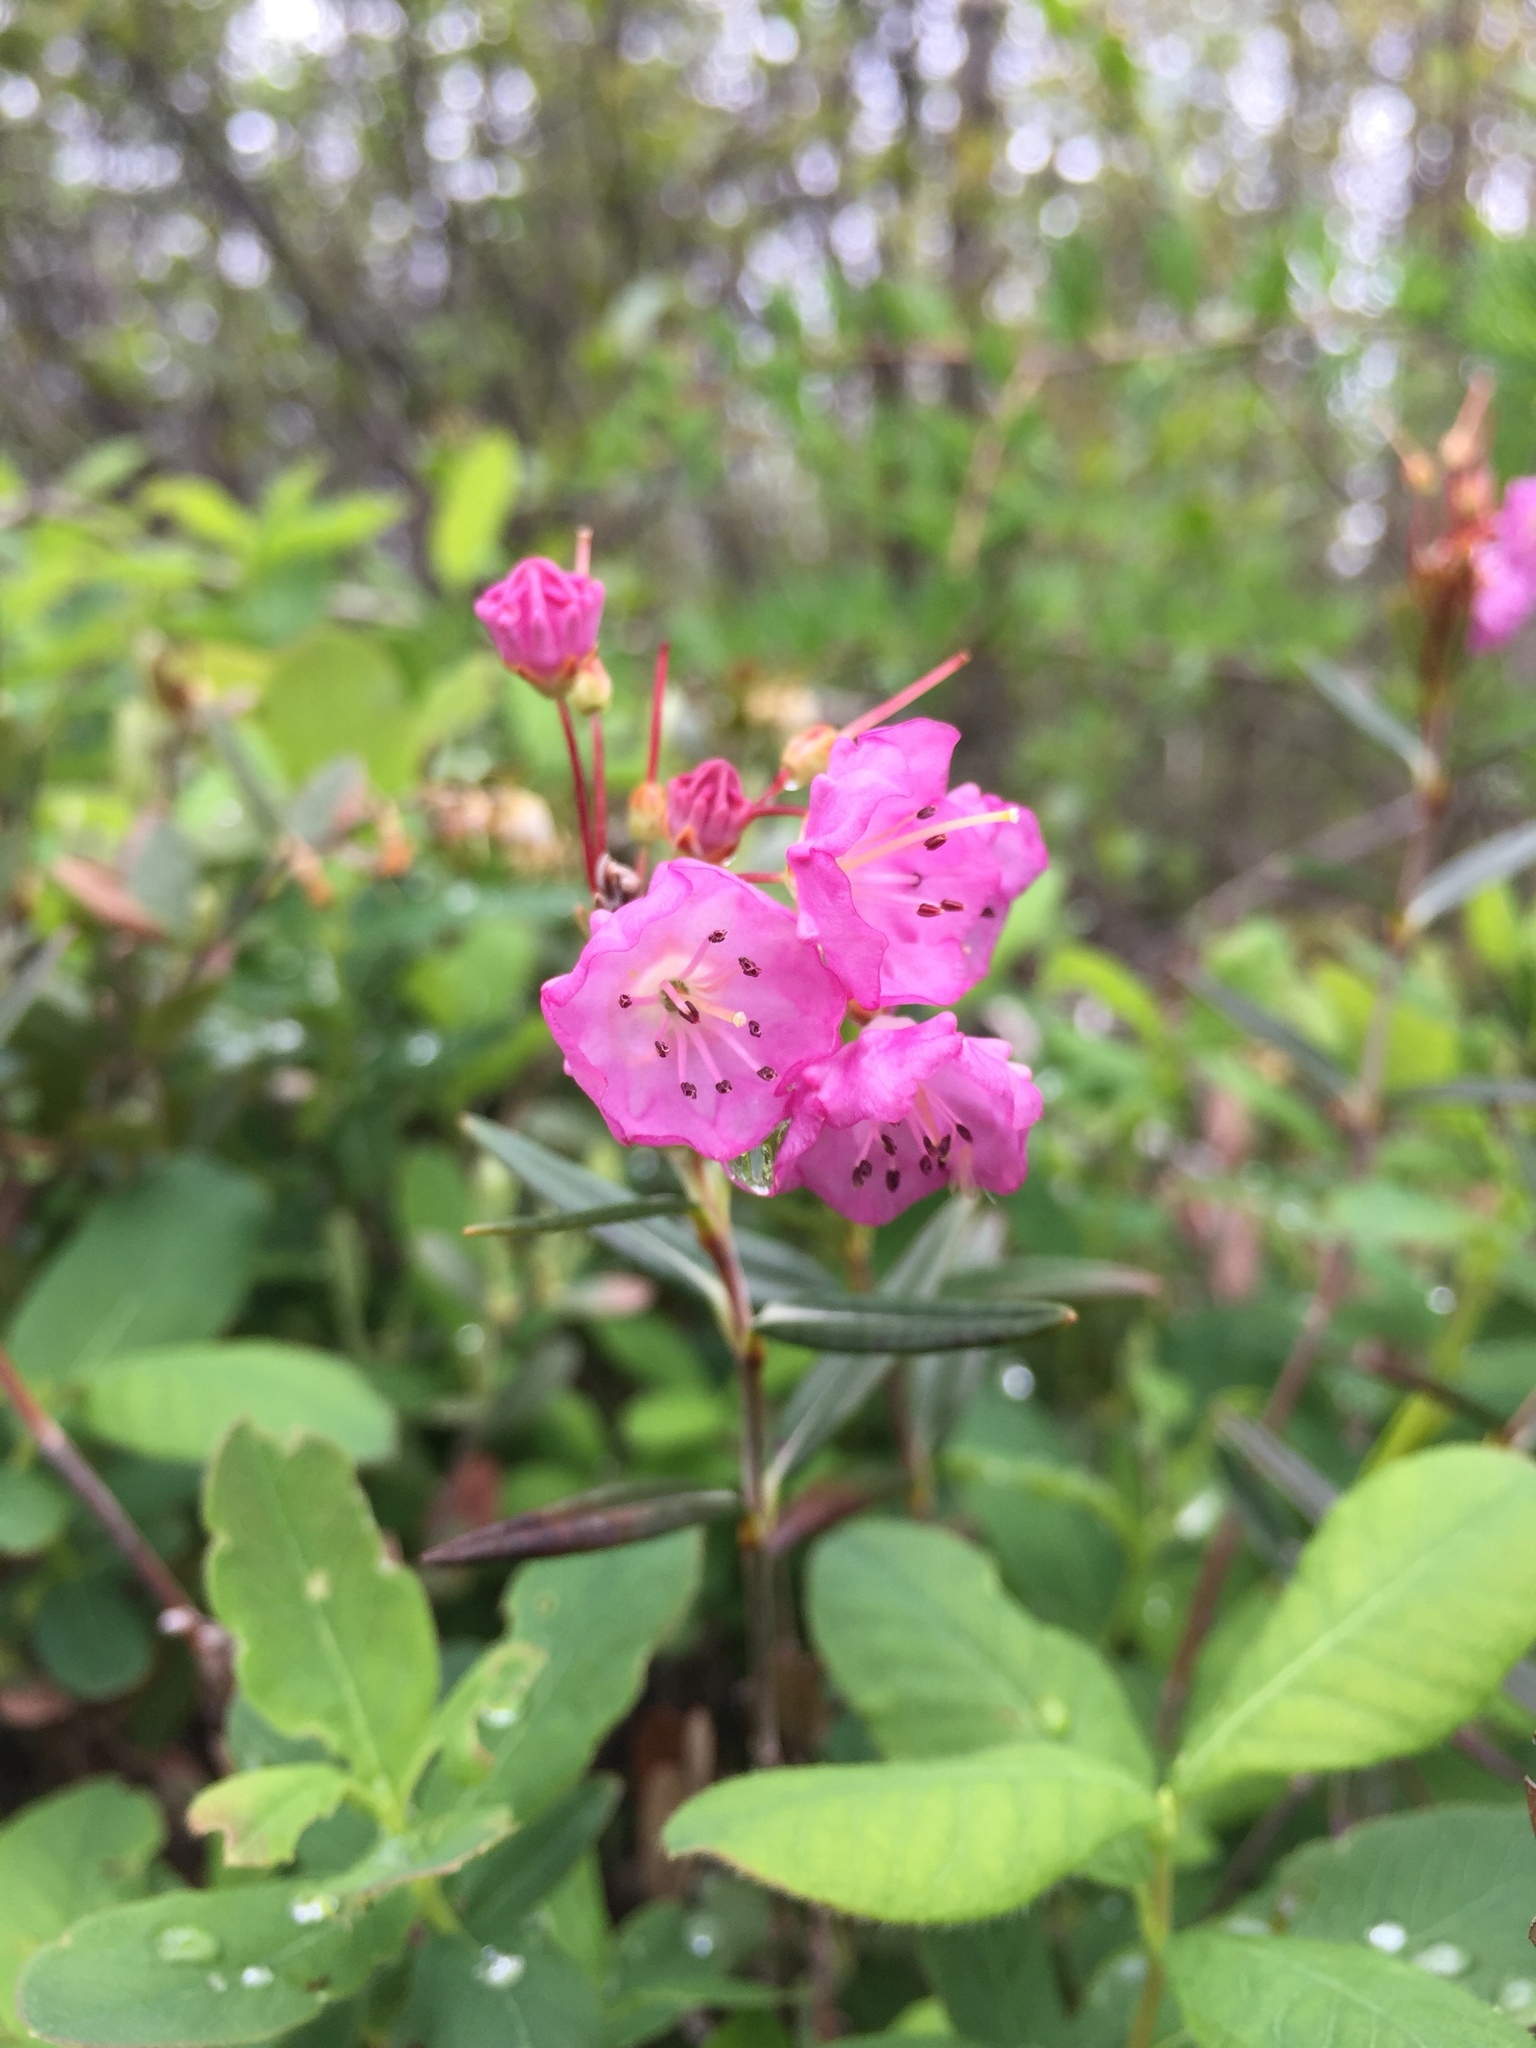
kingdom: Plantae
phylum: Tracheophyta
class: Magnoliopsida
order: Ericales
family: Ericaceae
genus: Kalmia
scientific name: Kalmia polifolia
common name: Bog-laurel
